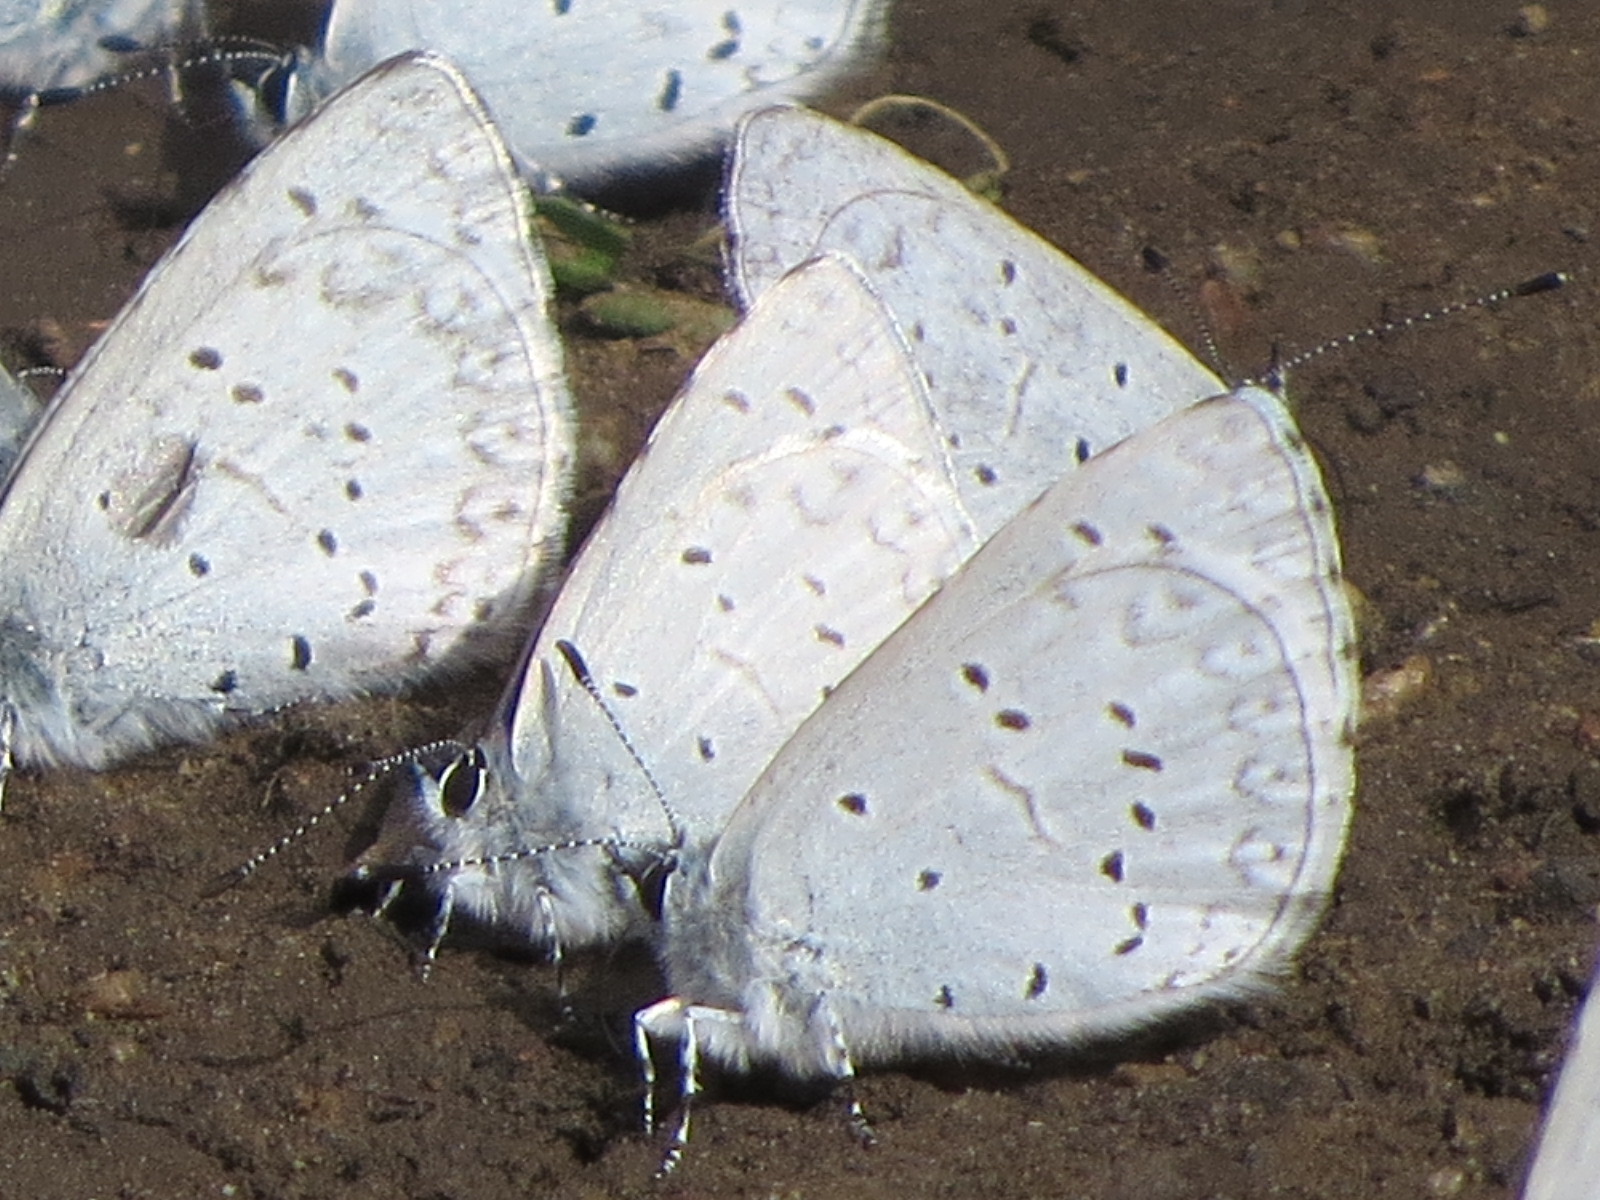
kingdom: Animalia
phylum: Arthropoda
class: Insecta
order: Lepidoptera
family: Lycaenidae
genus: Celastrina
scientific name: Celastrina ladon
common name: Spring azure
